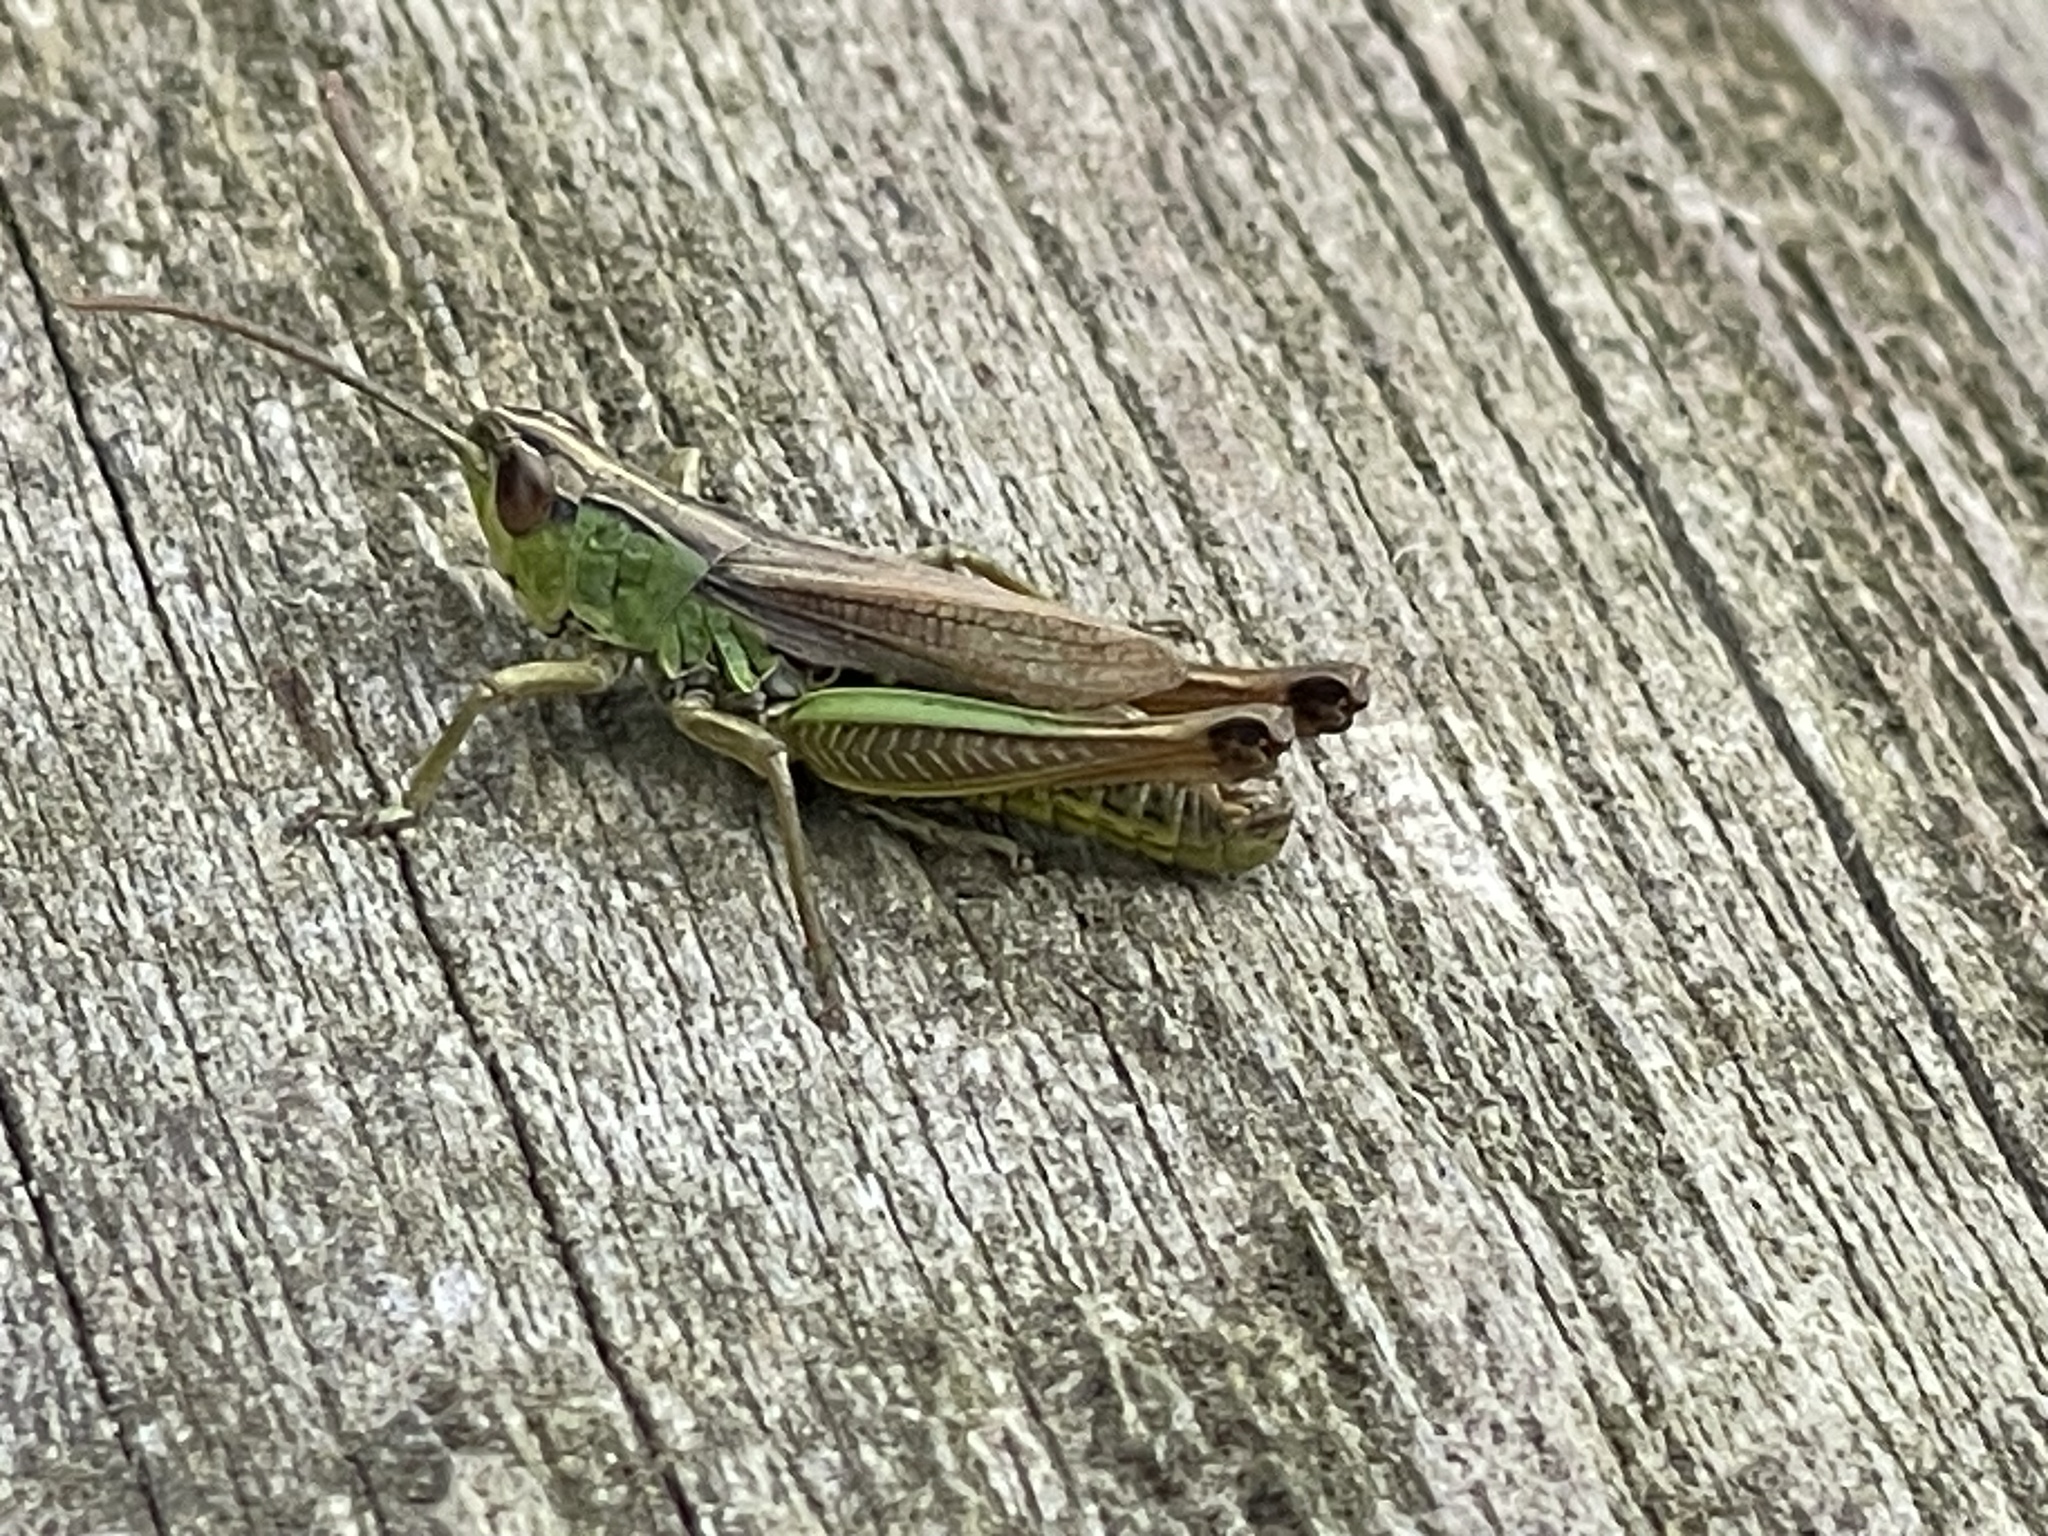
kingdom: Animalia
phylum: Arthropoda
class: Insecta
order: Orthoptera
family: Acrididae
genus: Pseudochorthippus
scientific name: Pseudochorthippus parallelus
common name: Meadow grasshopper
